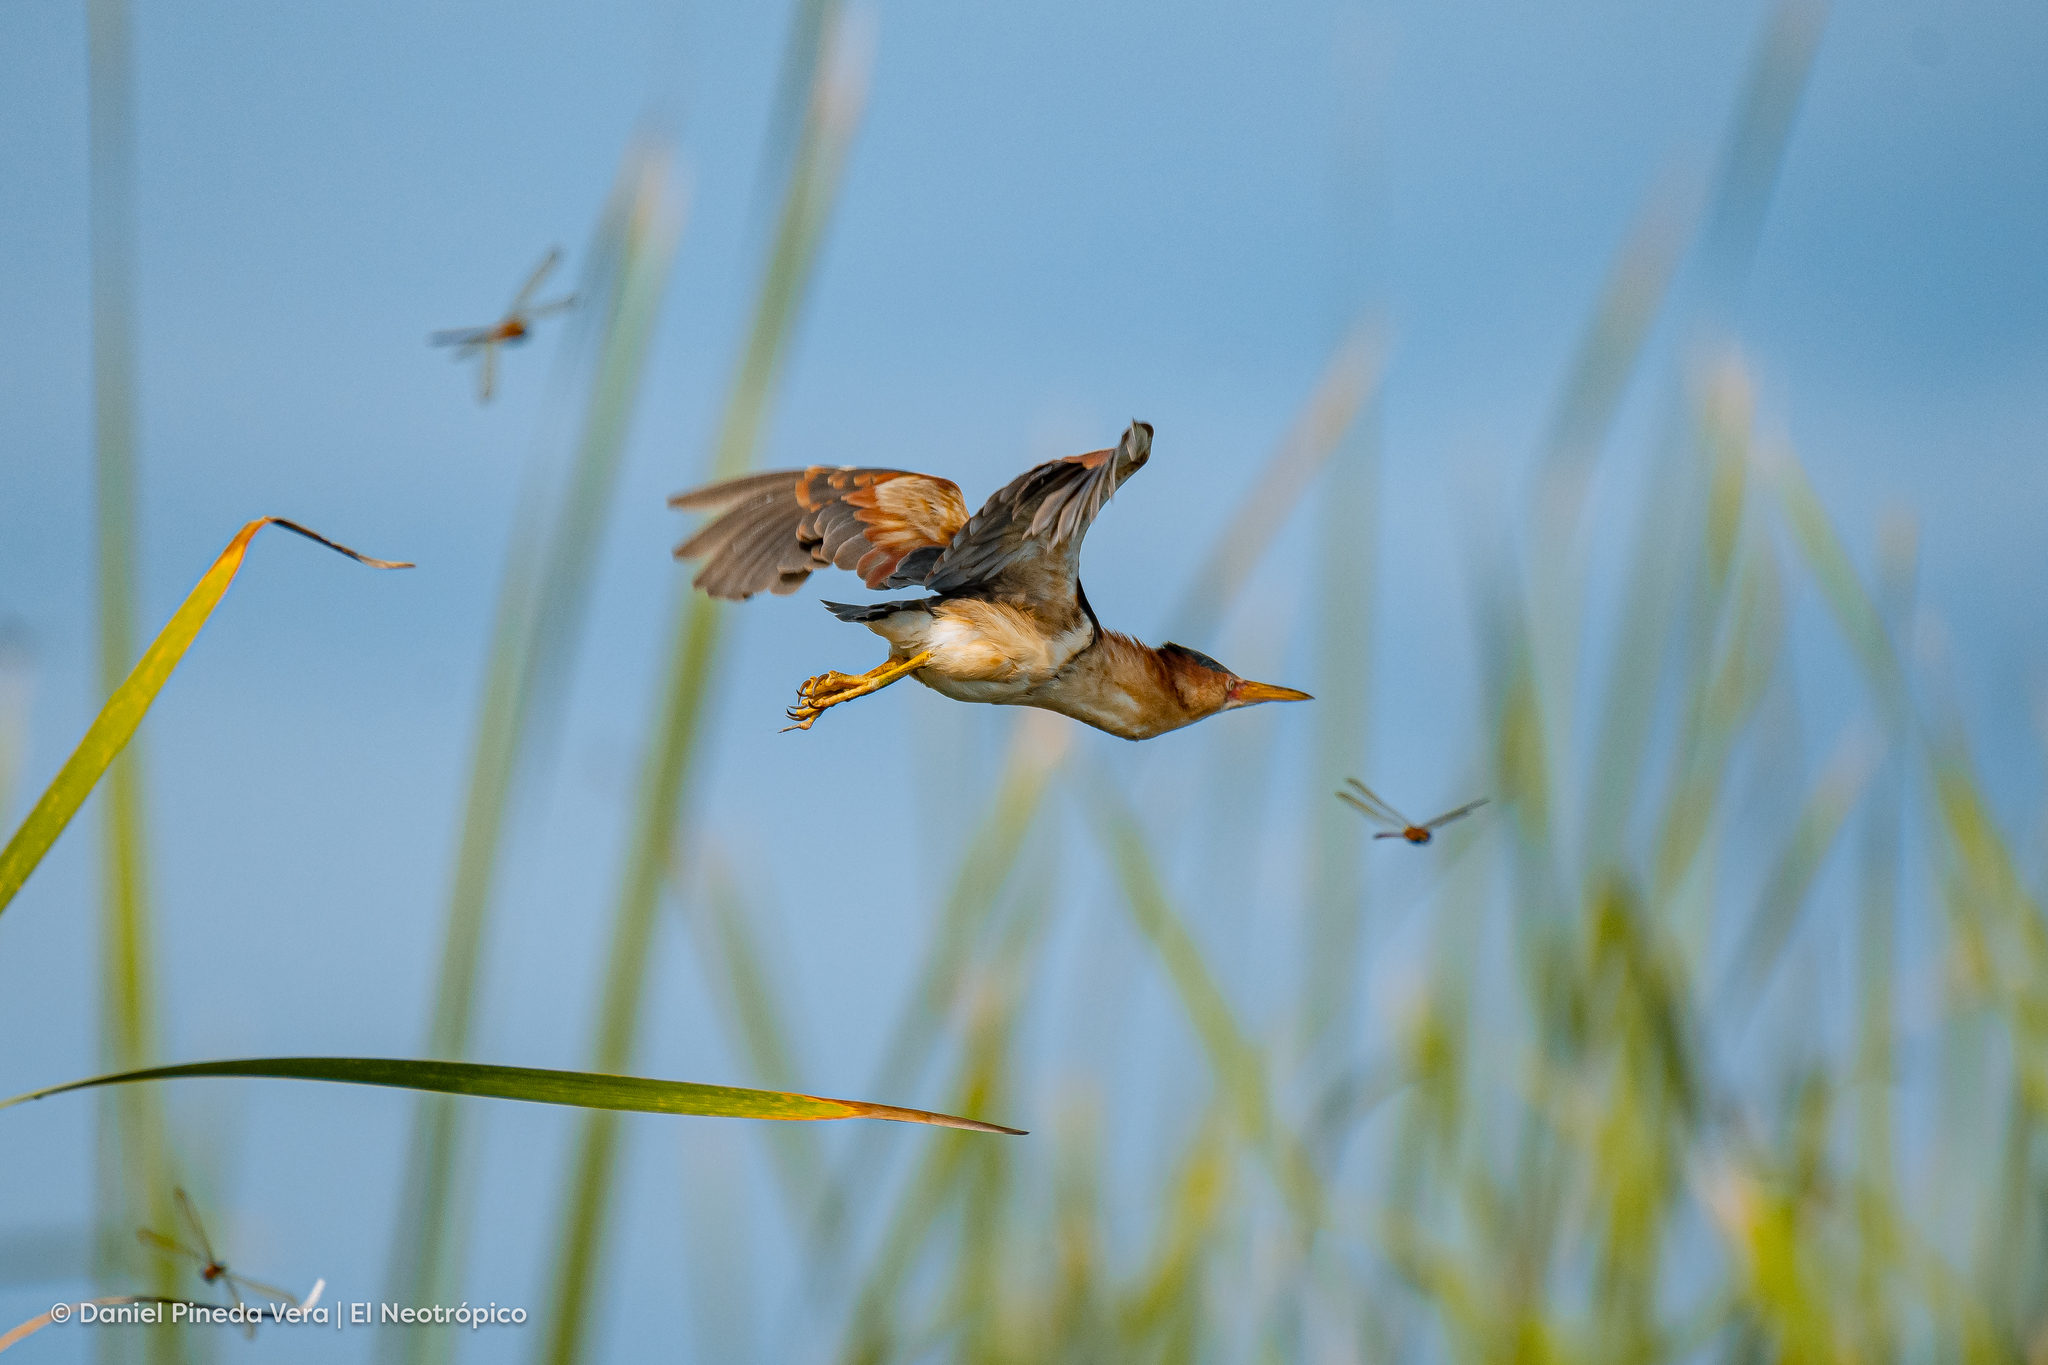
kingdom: Animalia
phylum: Chordata
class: Aves
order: Pelecaniformes
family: Ardeidae
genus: Ixobrychus
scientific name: Ixobrychus exilis
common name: Least bittern
